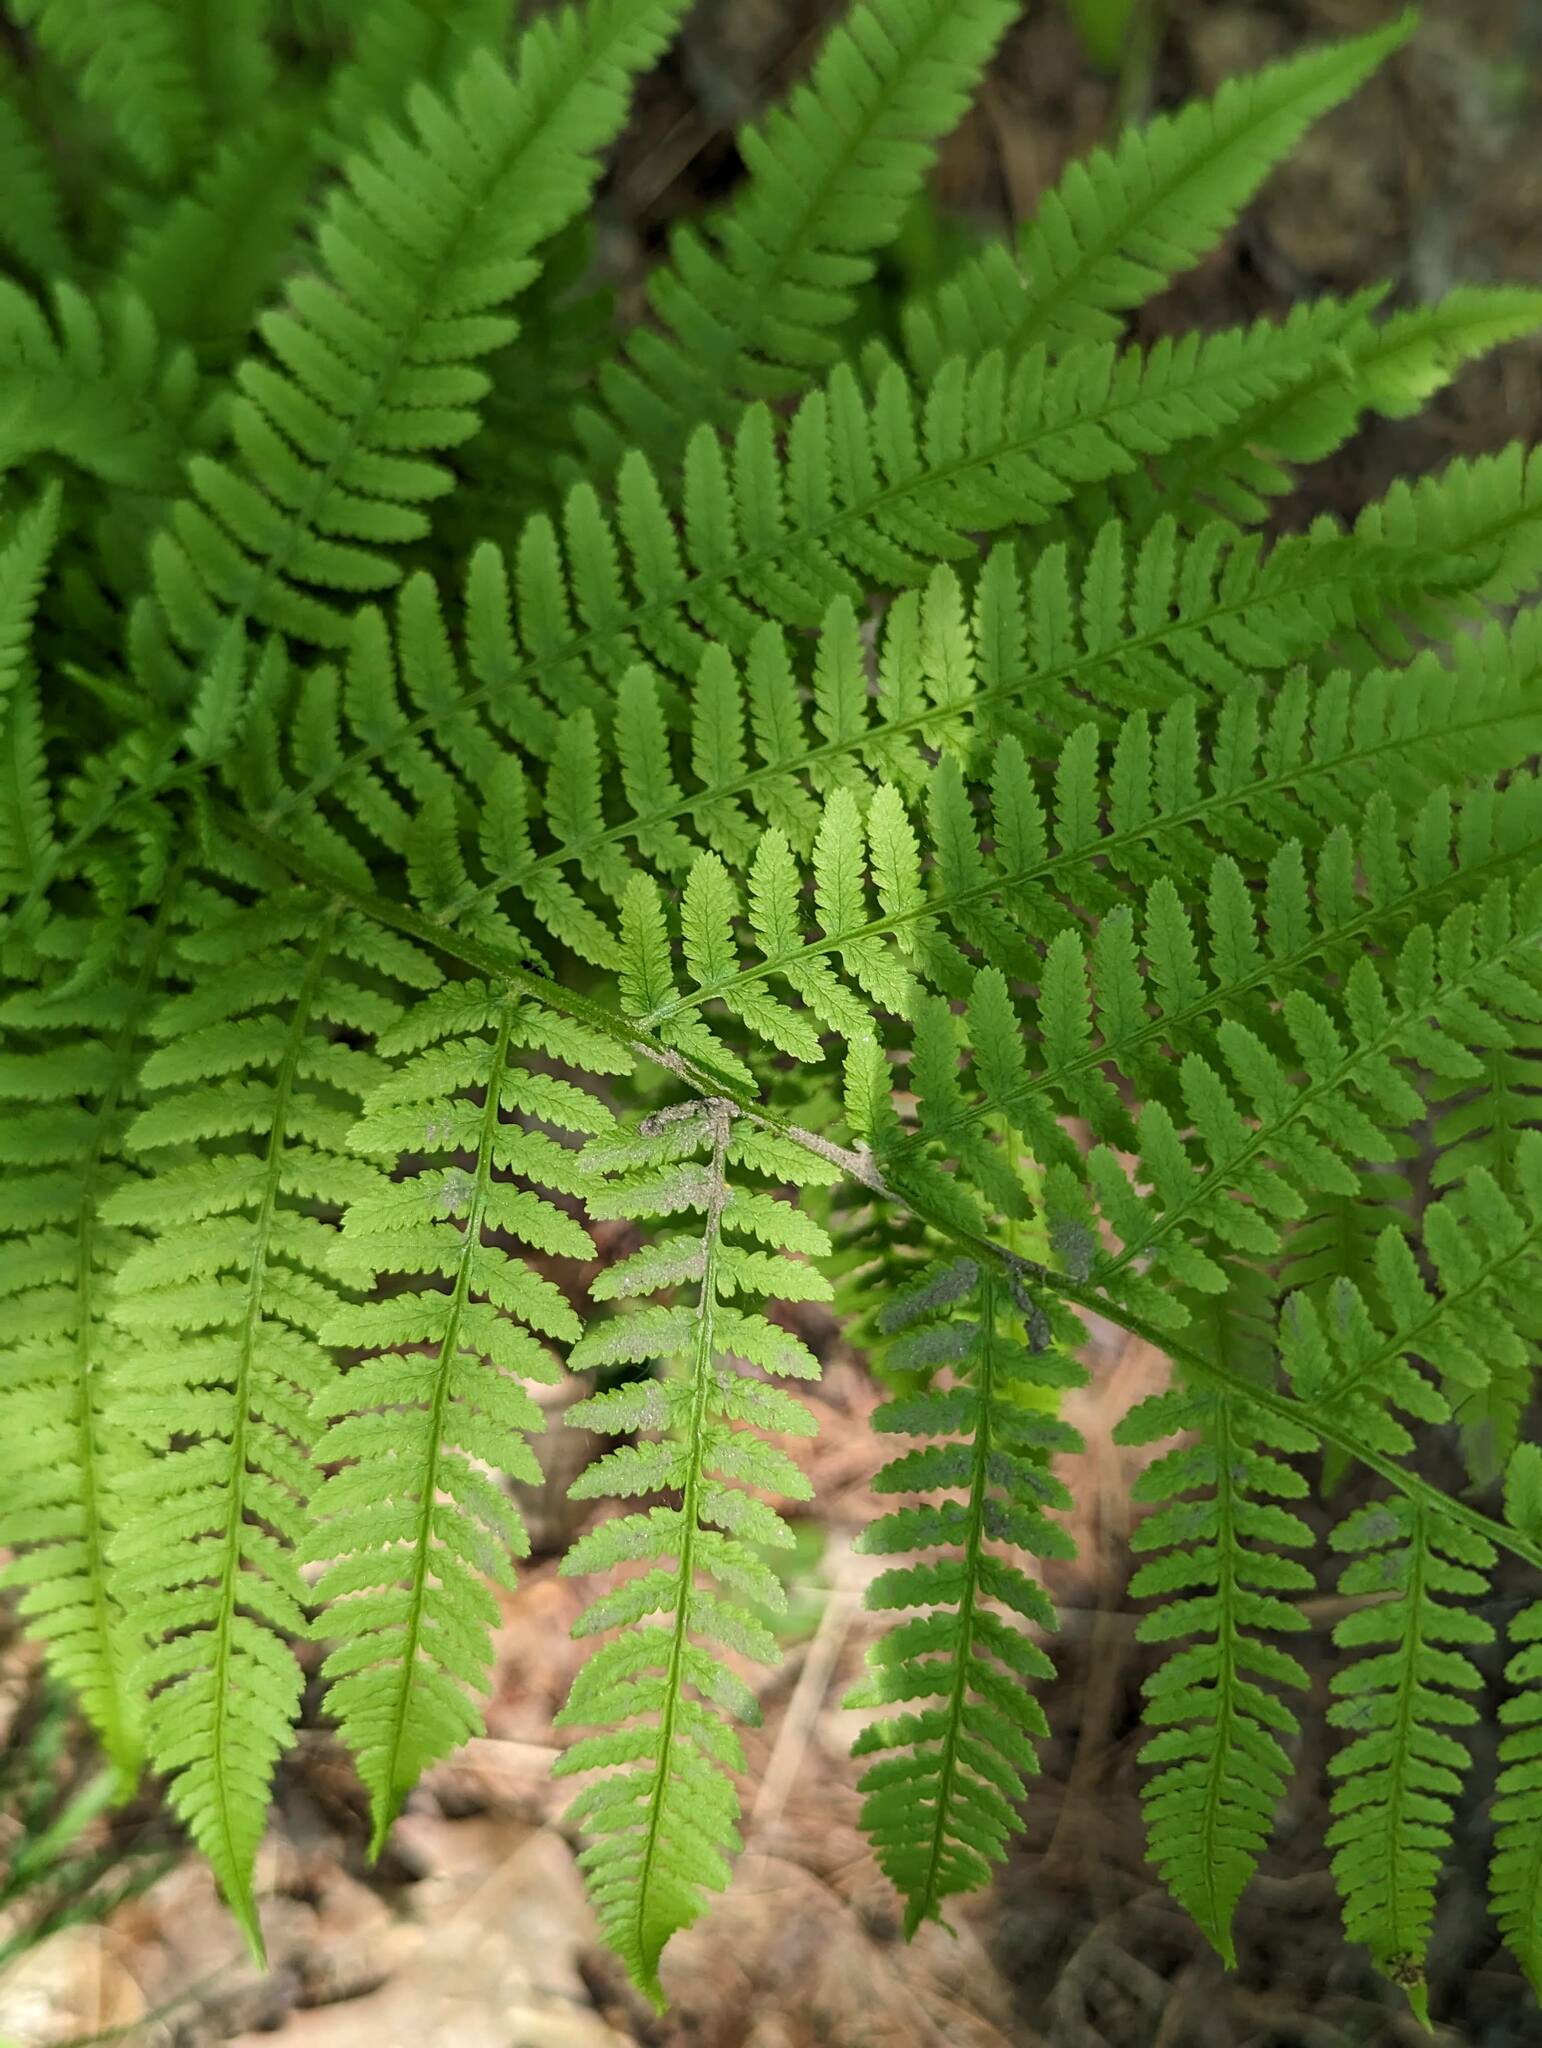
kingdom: Plantae
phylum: Tracheophyta
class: Polypodiopsida
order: Polypodiales
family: Athyriaceae
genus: Athyrium
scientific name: Athyrium angustum
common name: Northern lady fern
